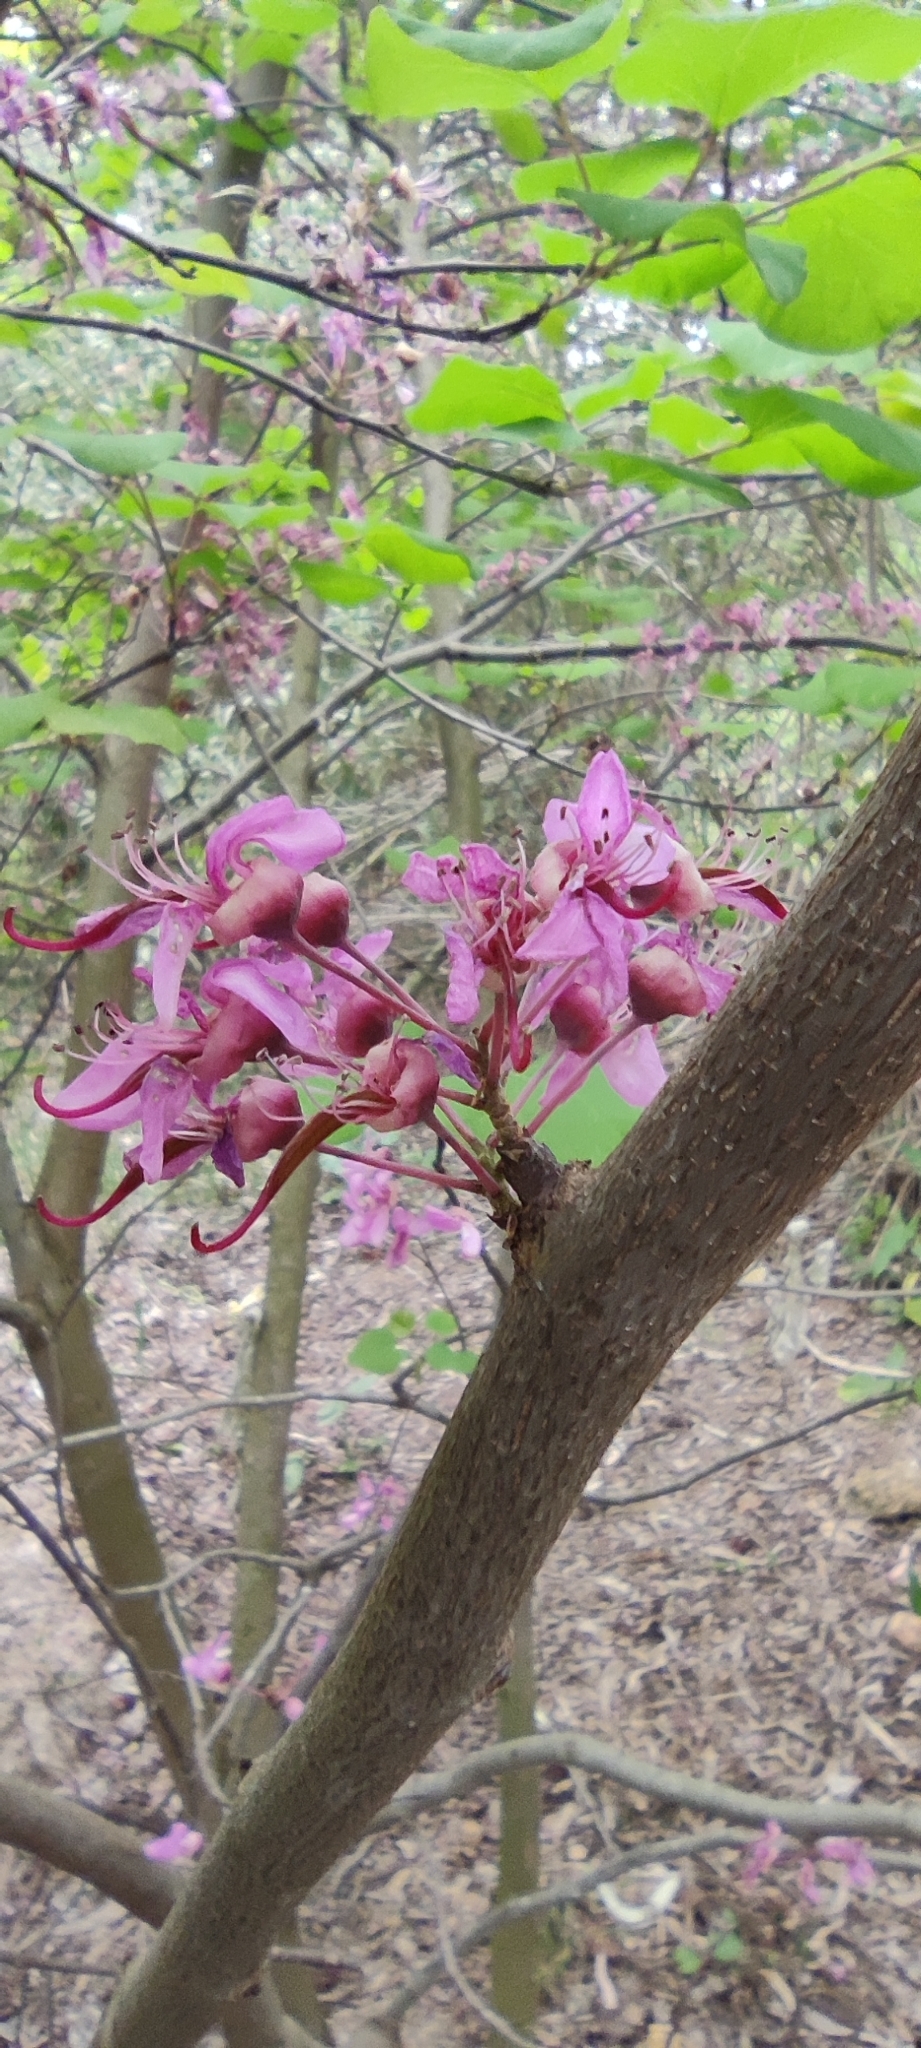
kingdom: Plantae
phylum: Tracheophyta
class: Magnoliopsida
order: Fabales
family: Fabaceae
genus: Cercis
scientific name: Cercis siliquastrum
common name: Judas tree
